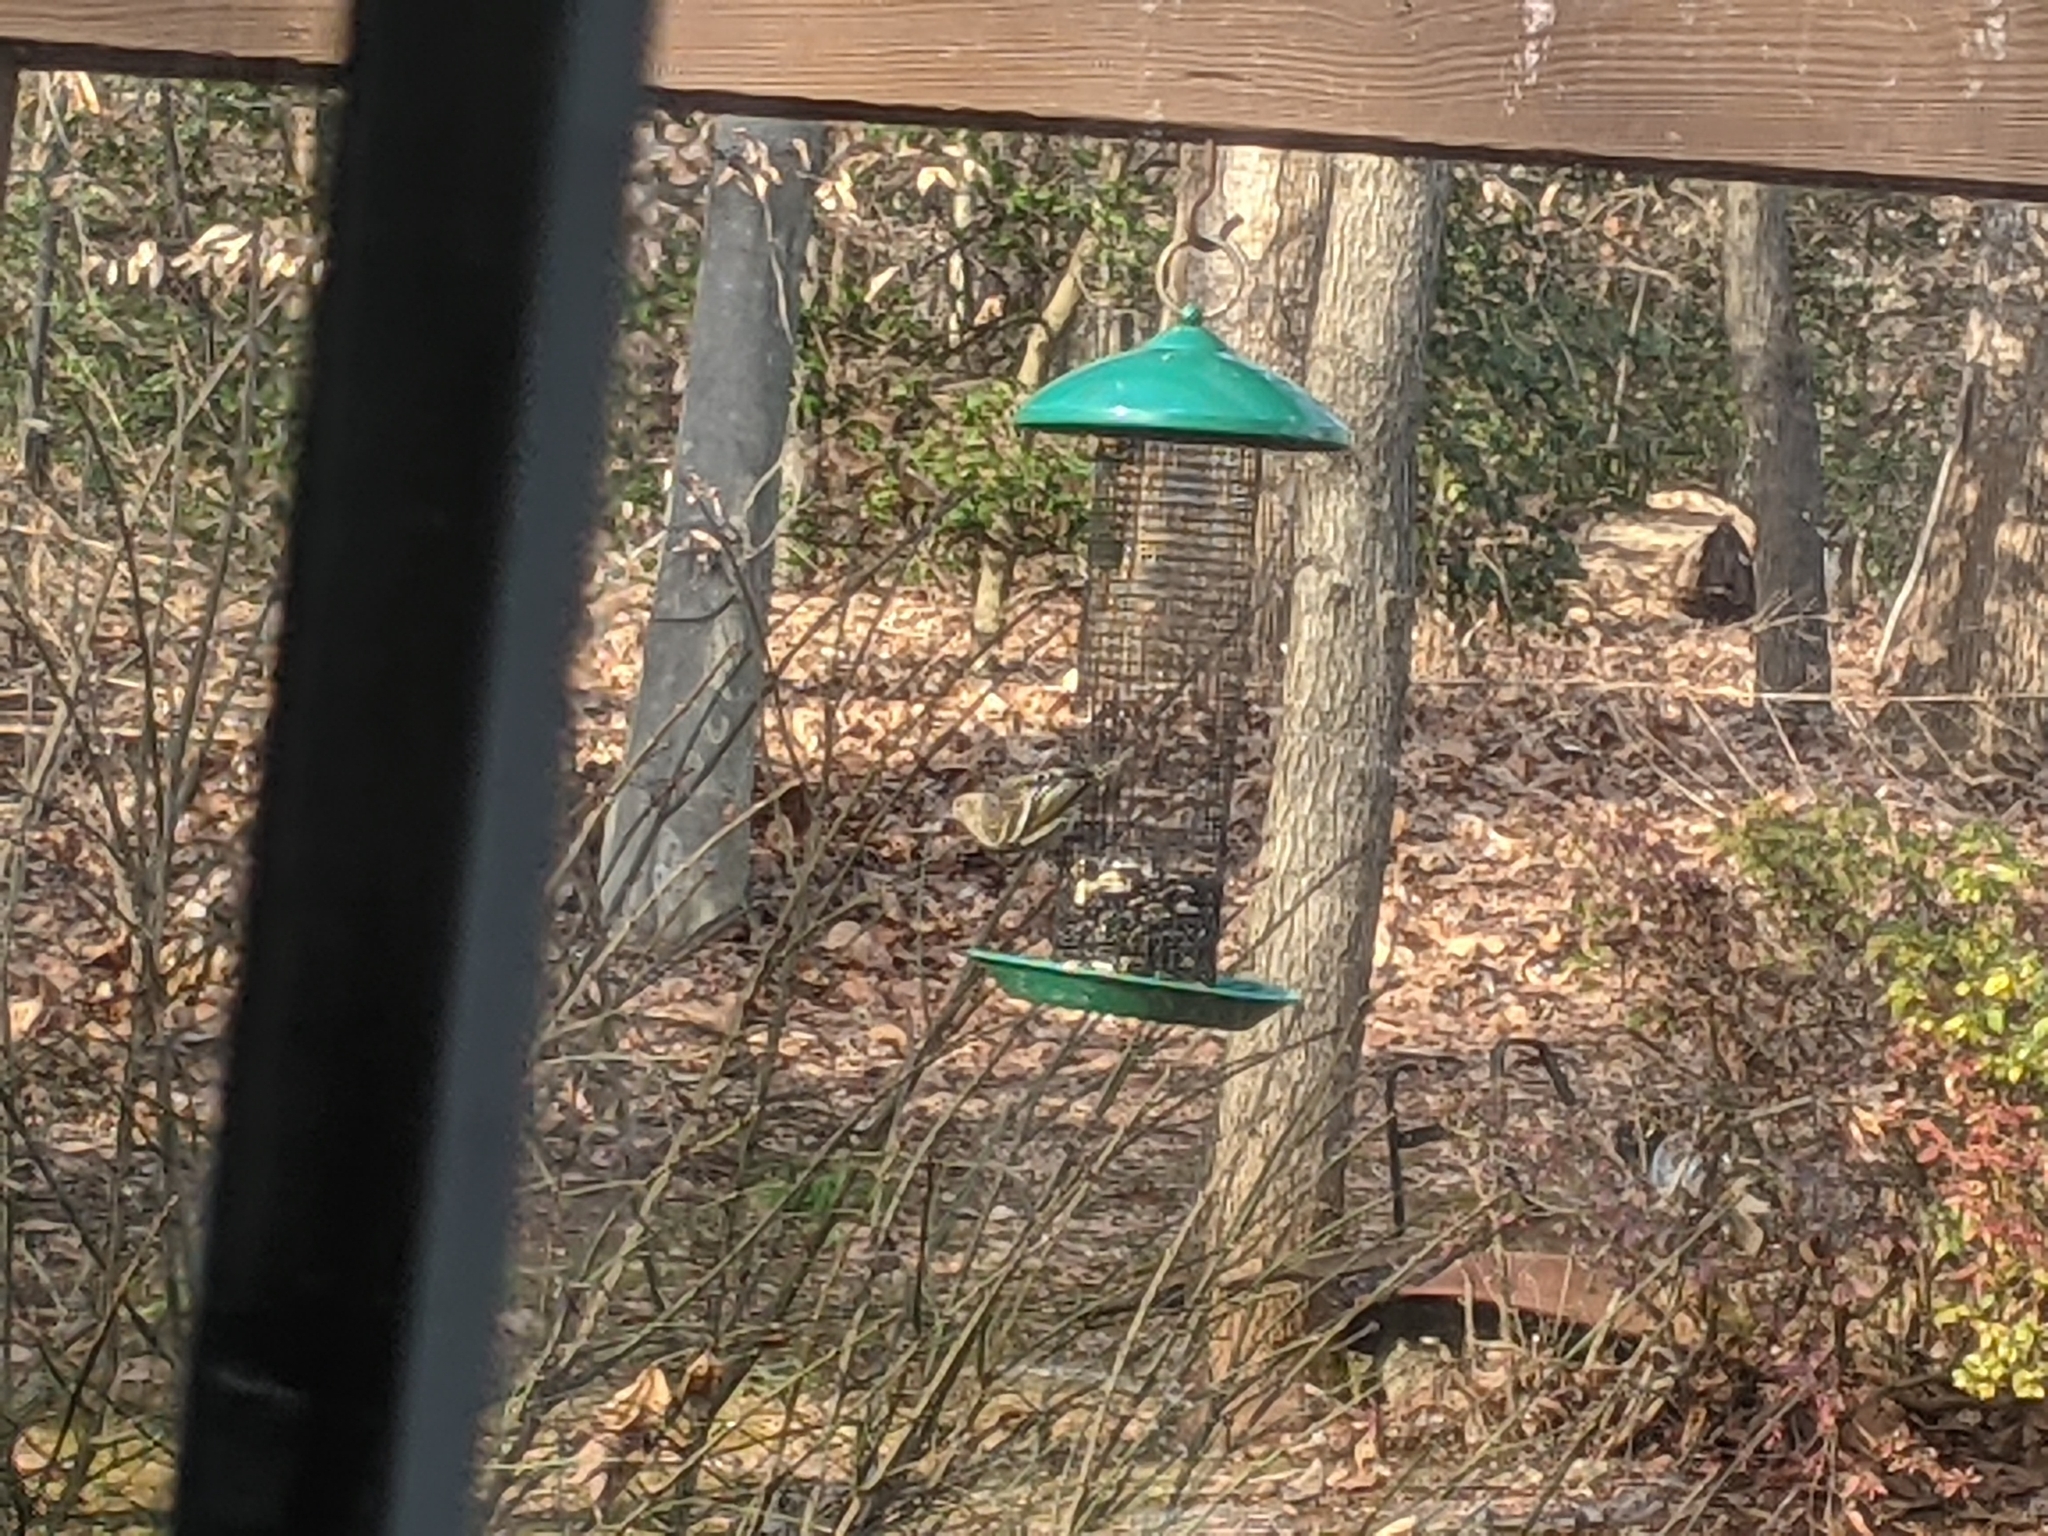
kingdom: Animalia
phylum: Chordata
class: Aves
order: Passeriformes
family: Fringillidae
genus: Spinus
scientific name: Spinus pinus
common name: Pine siskin
